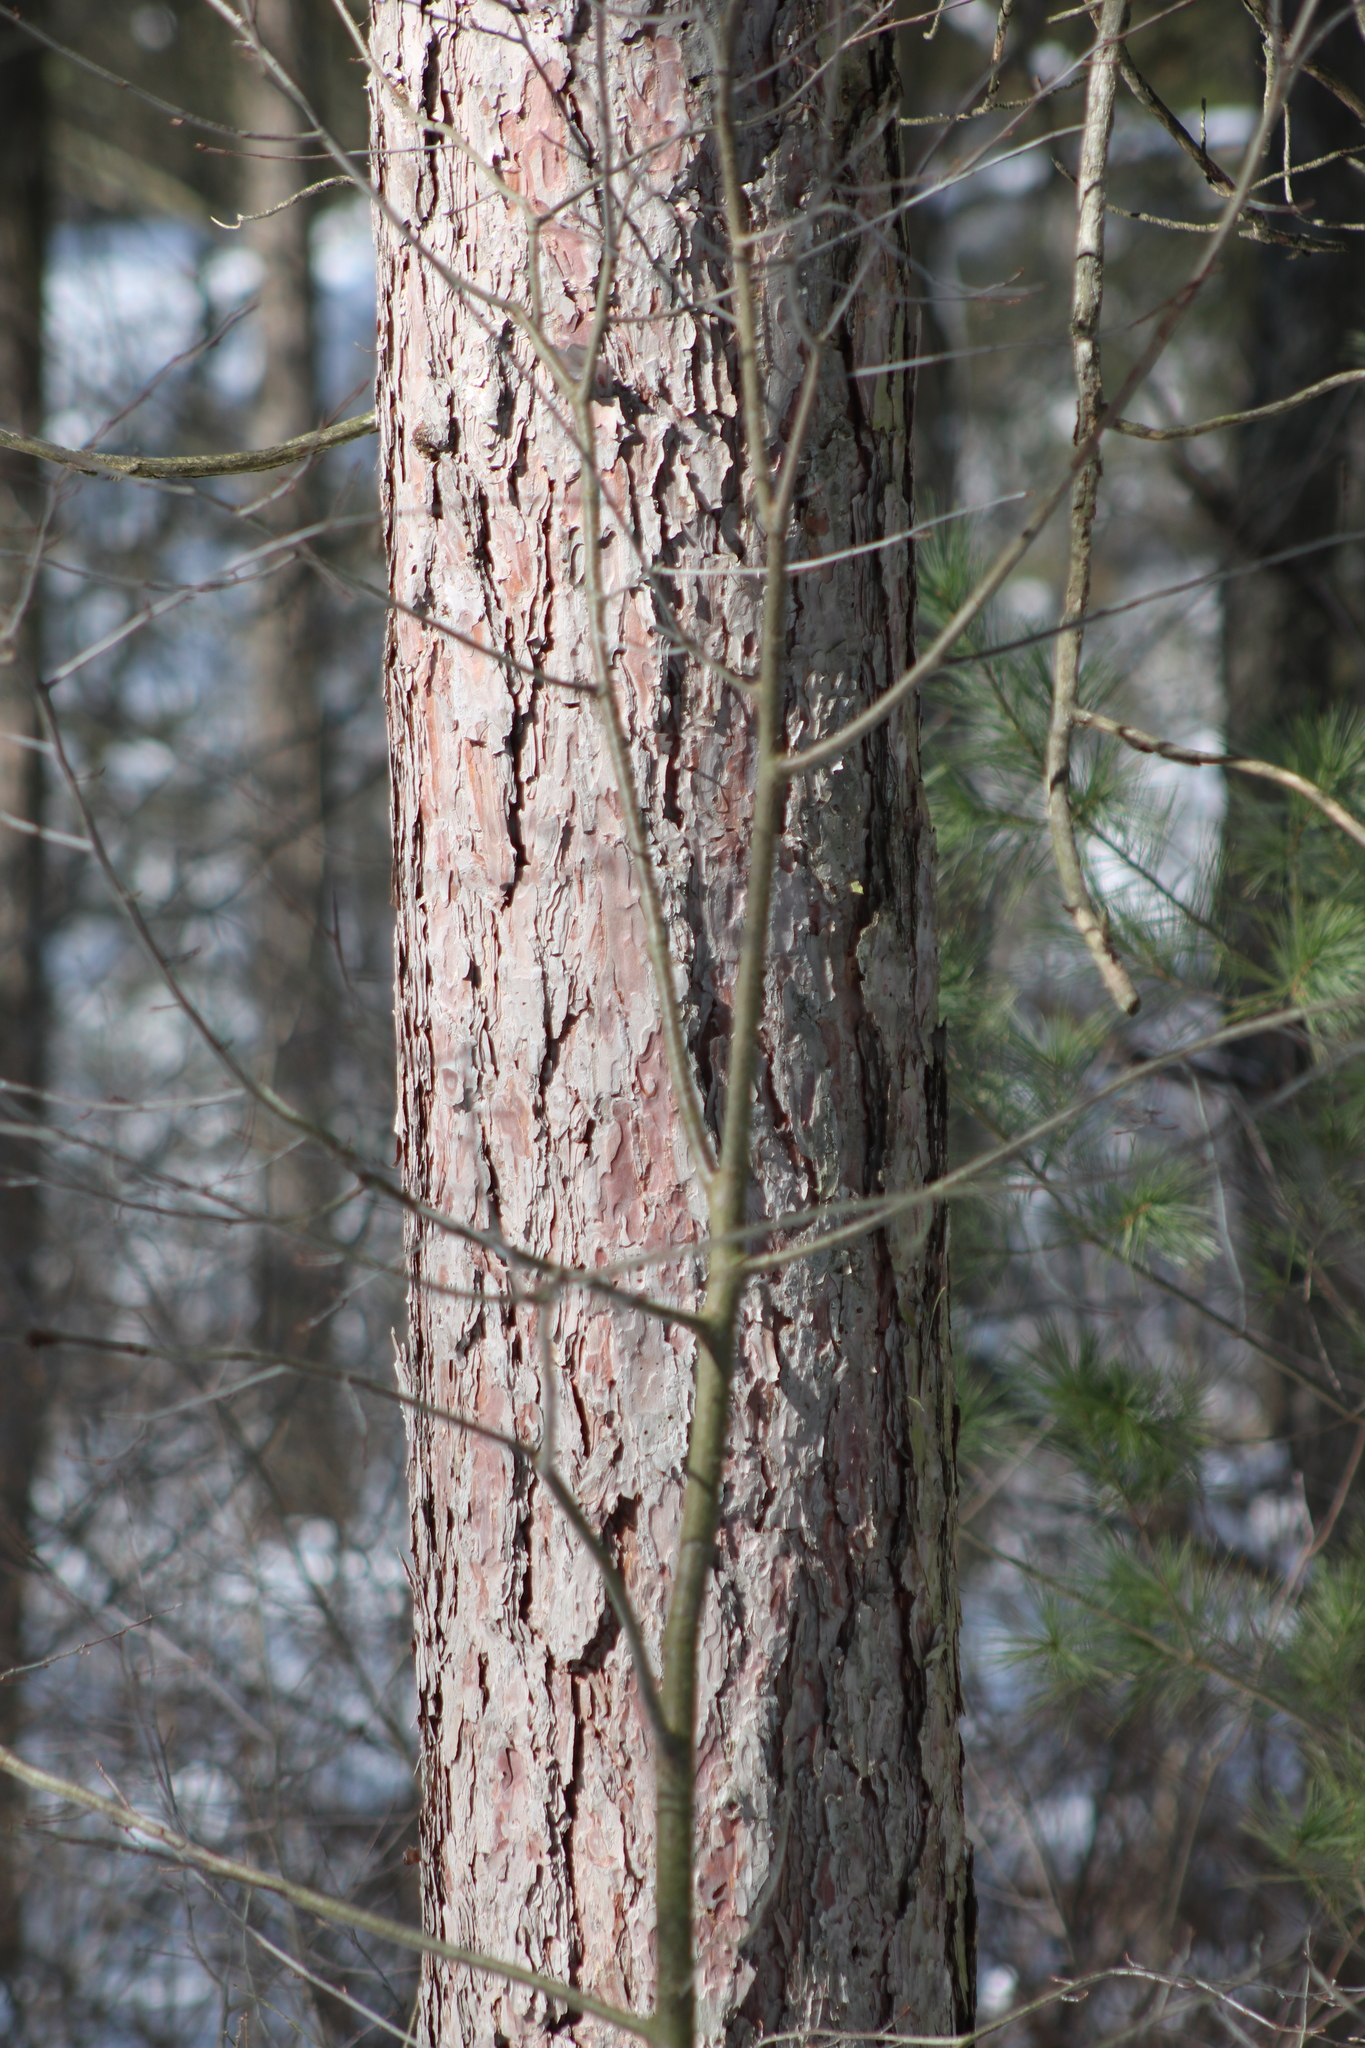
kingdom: Plantae
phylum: Tracheophyta
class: Pinopsida
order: Pinales
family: Pinaceae
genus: Pinus
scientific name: Pinus resinosa
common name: Norway pine
